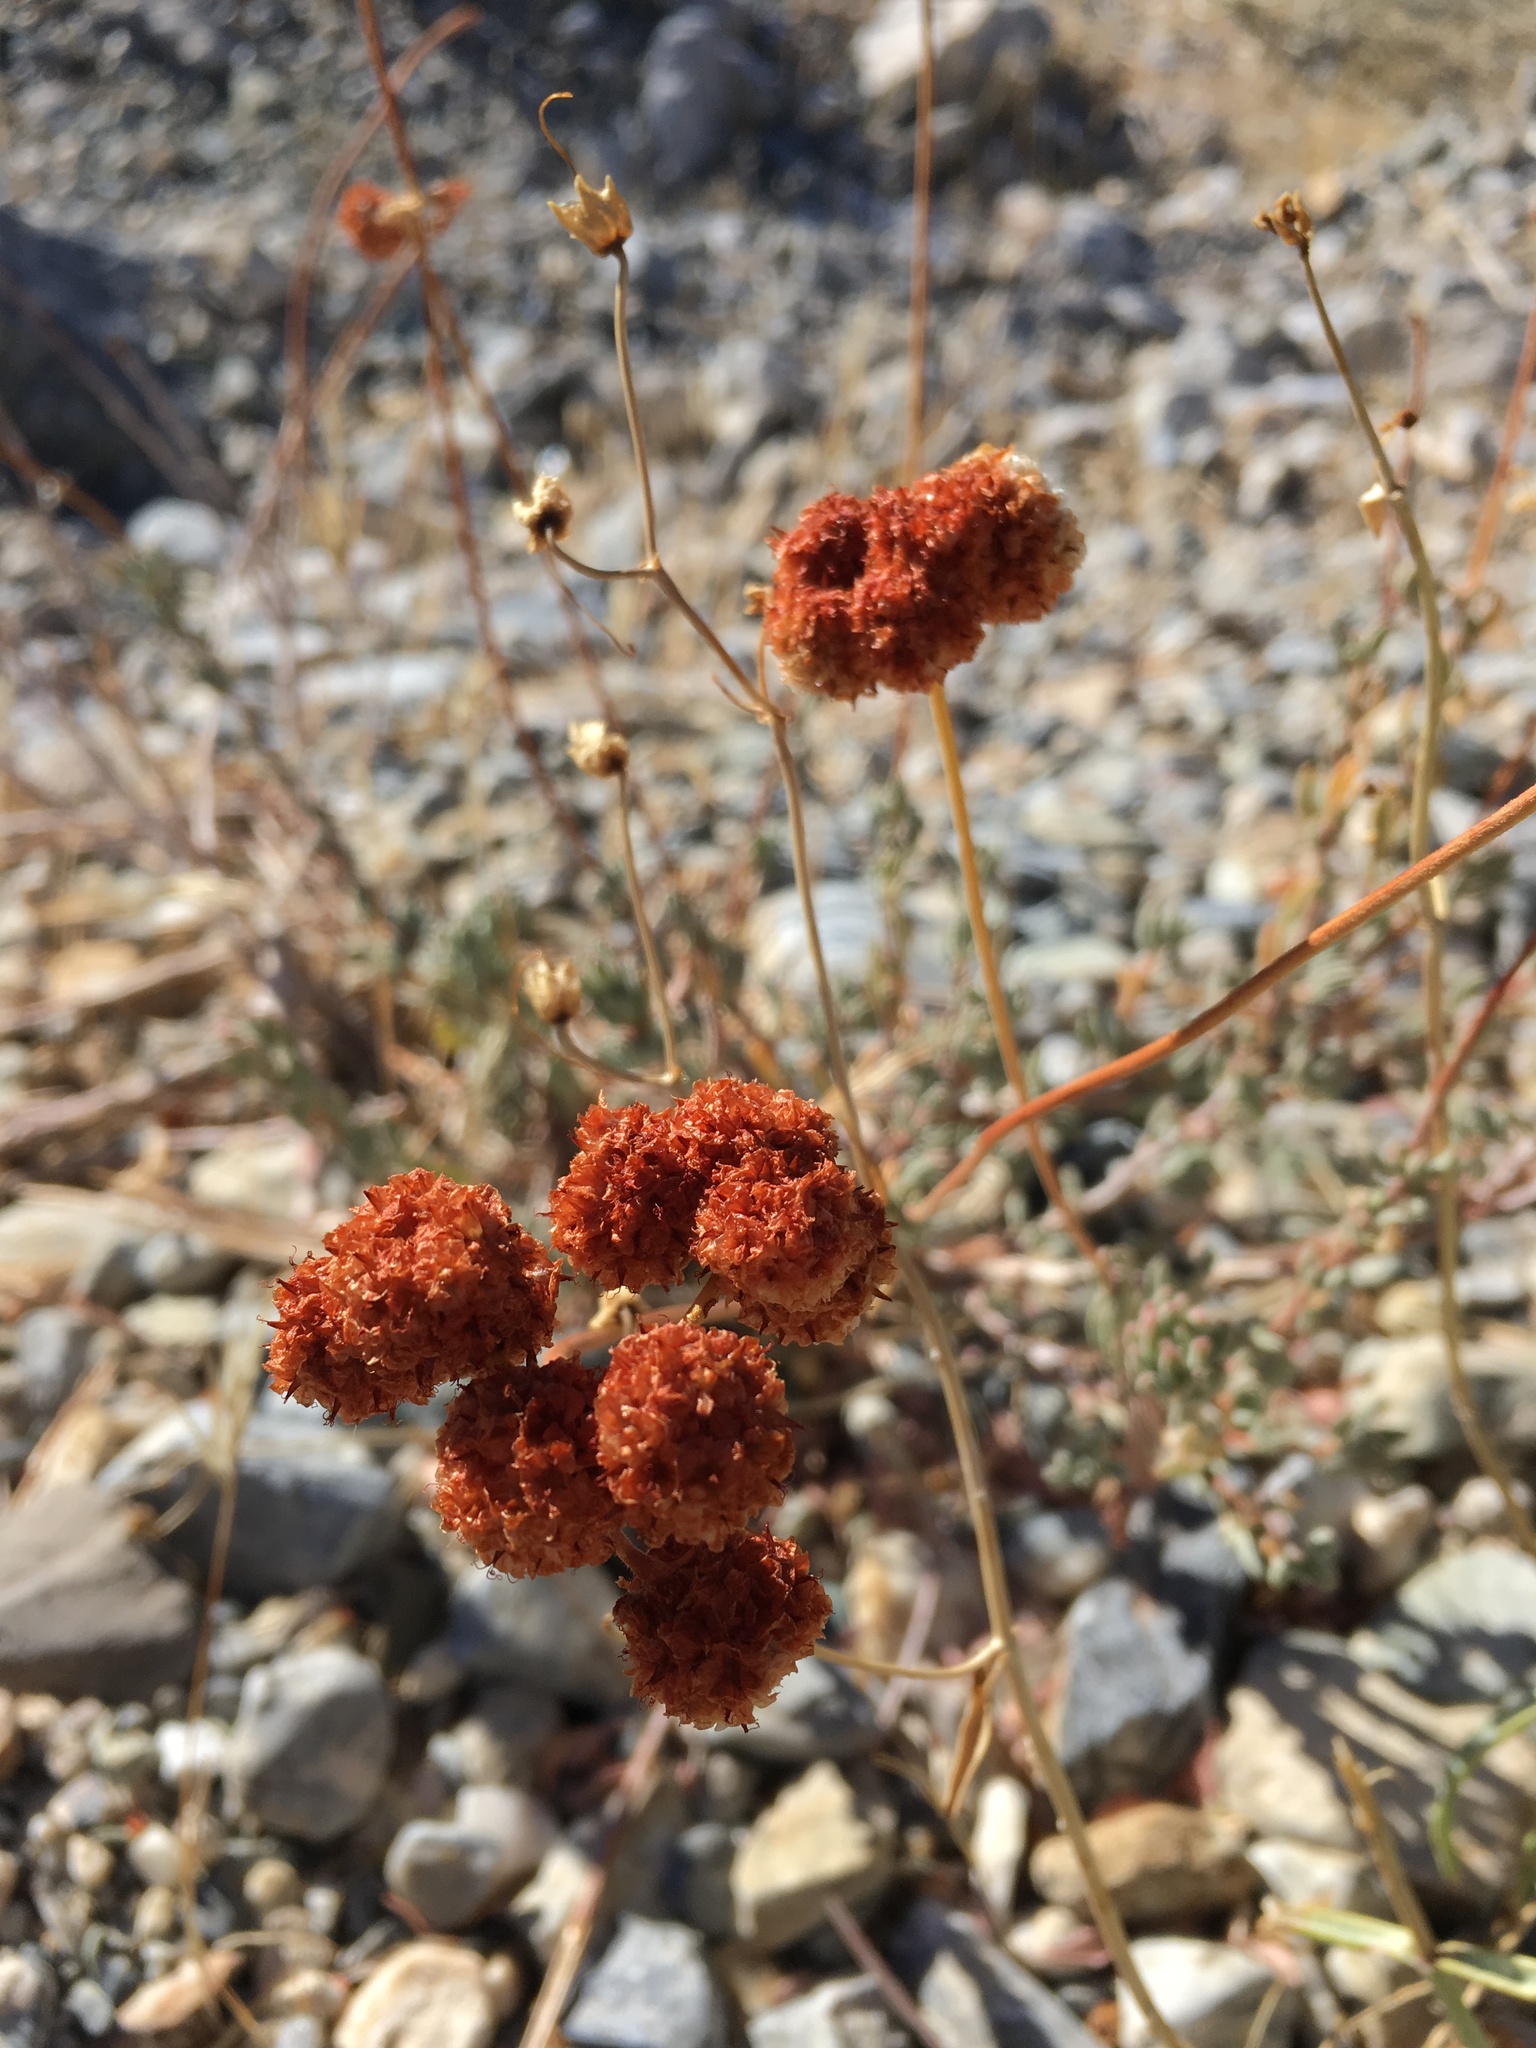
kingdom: Plantae
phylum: Tracheophyta
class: Magnoliopsida
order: Caryophyllales
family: Polygonaceae
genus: Eriogonum
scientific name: Eriogonum fasciculatum
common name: California wild buckwheat
